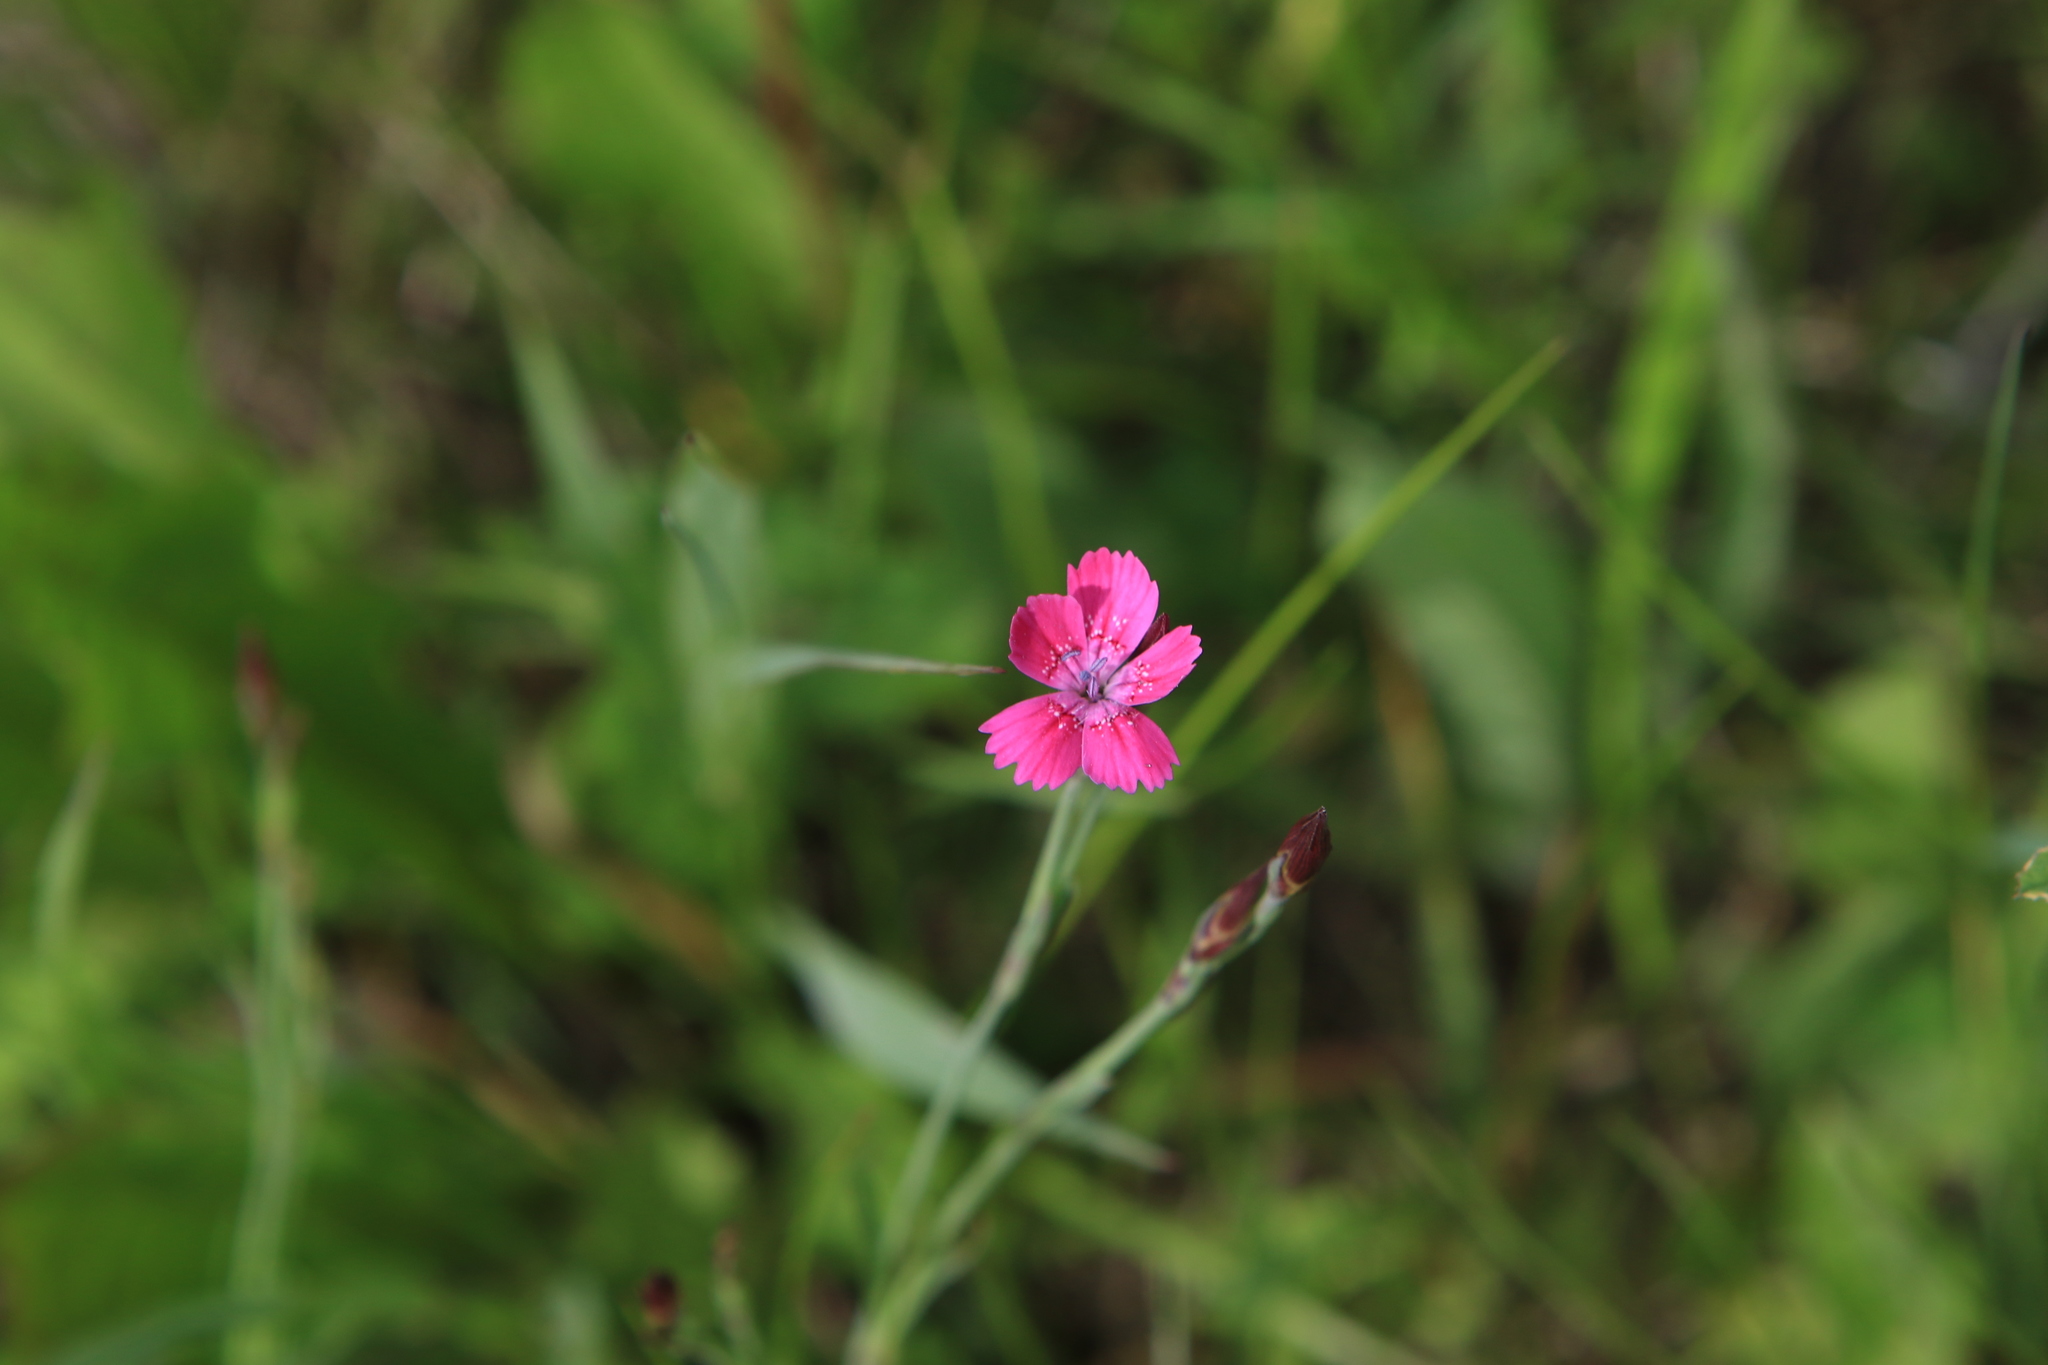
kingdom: Plantae
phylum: Tracheophyta
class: Magnoliopsida
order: Caryophyllales
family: Caryophyllaceae
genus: Dianthus
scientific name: Dianthus deltoides
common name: Maiden pink
